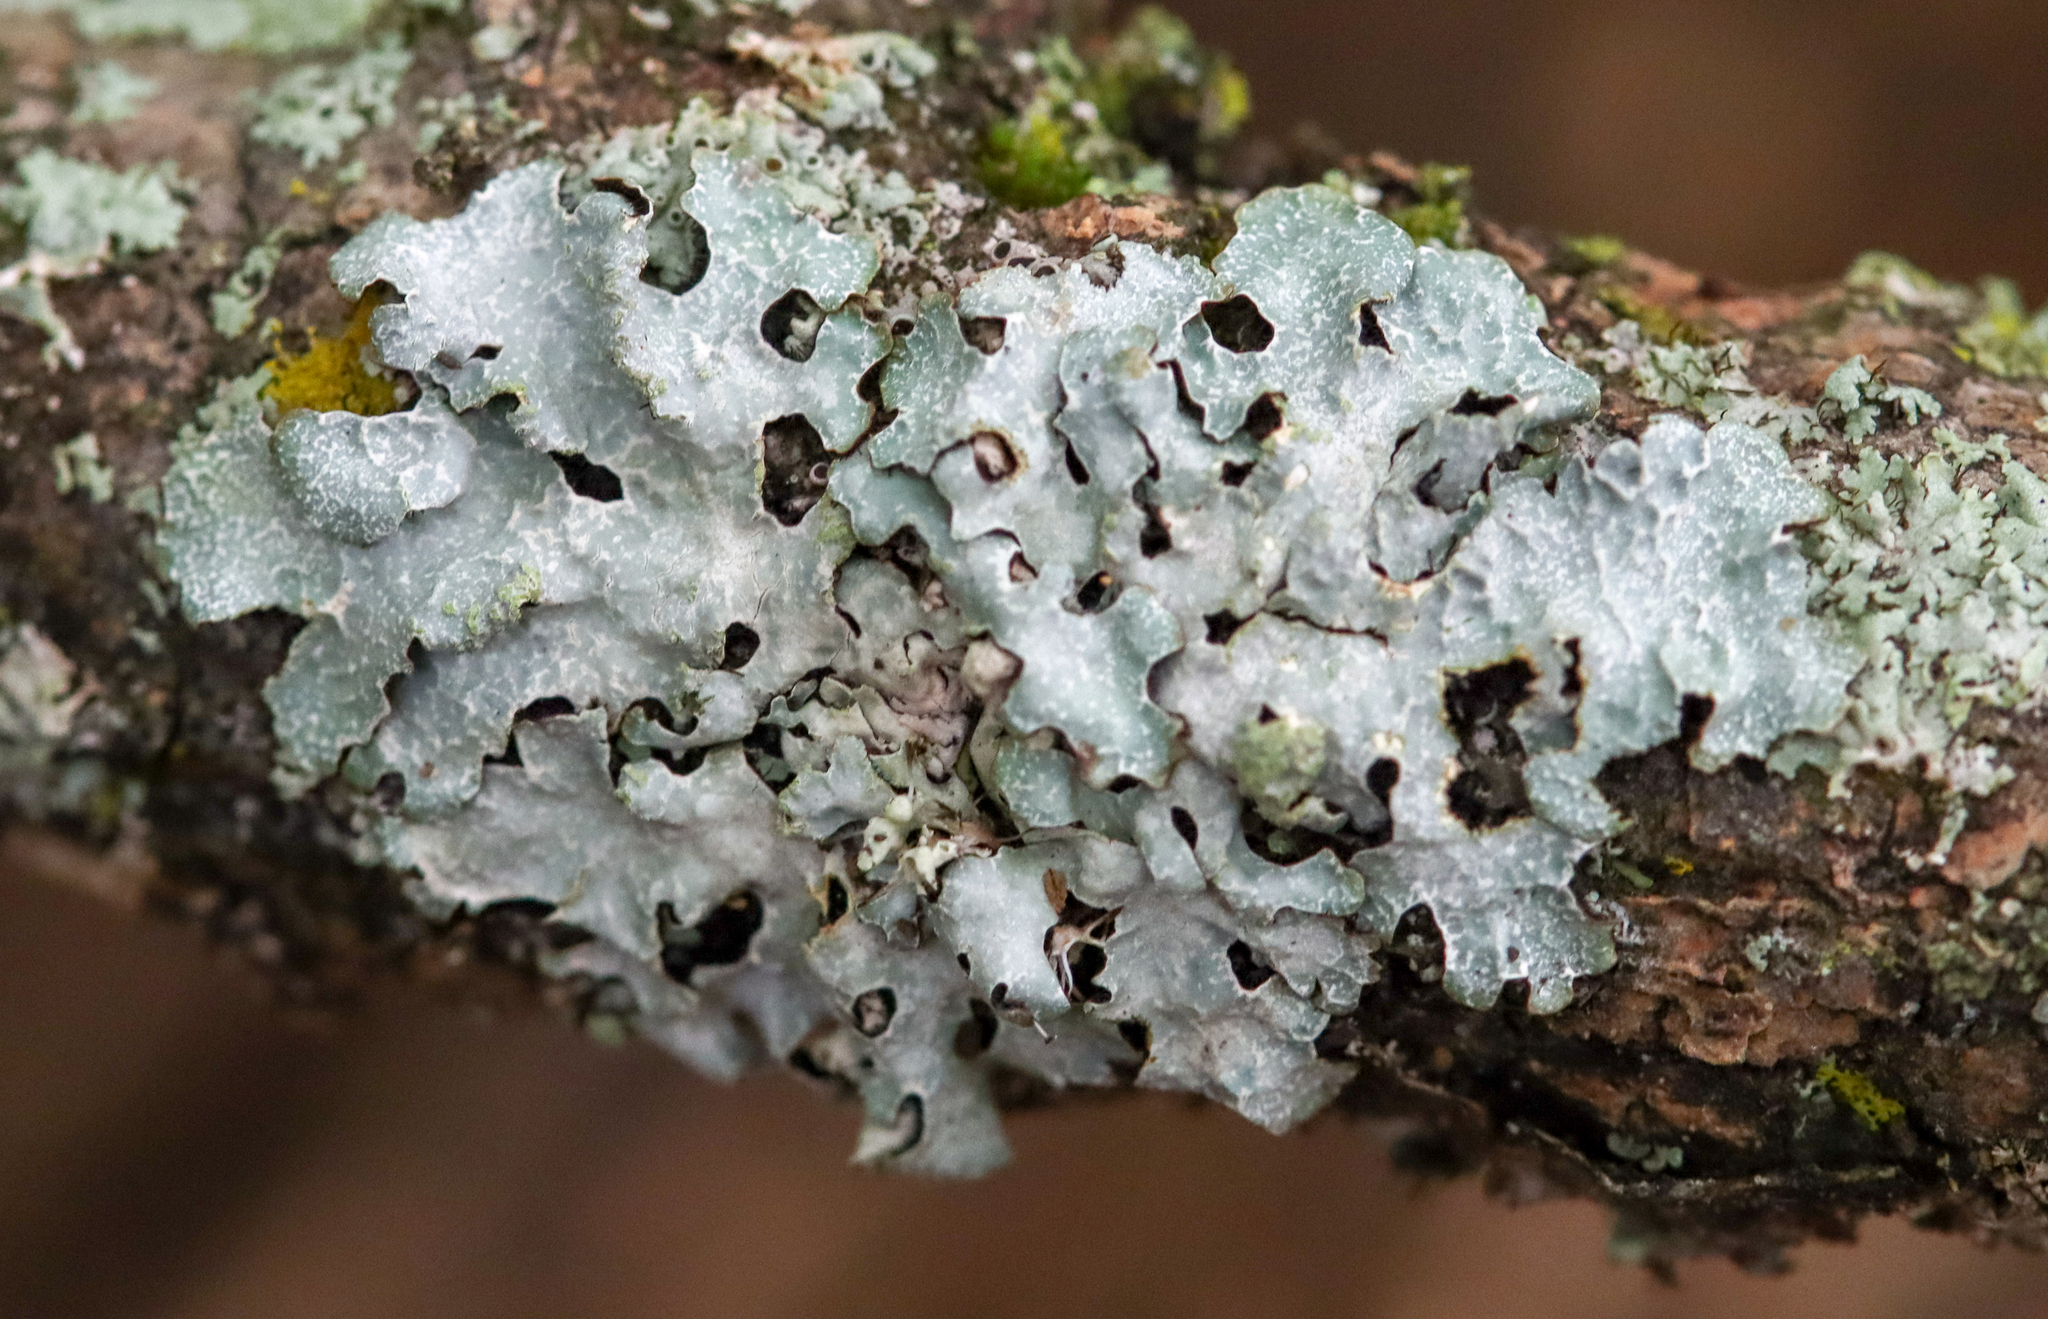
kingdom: Fungi
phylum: Ascomycota
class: Lecanoromycetes
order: Lecanorales
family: Parmeliaceae
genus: Parmelia
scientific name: Parmelia sulcata
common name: Netted shield lichen
